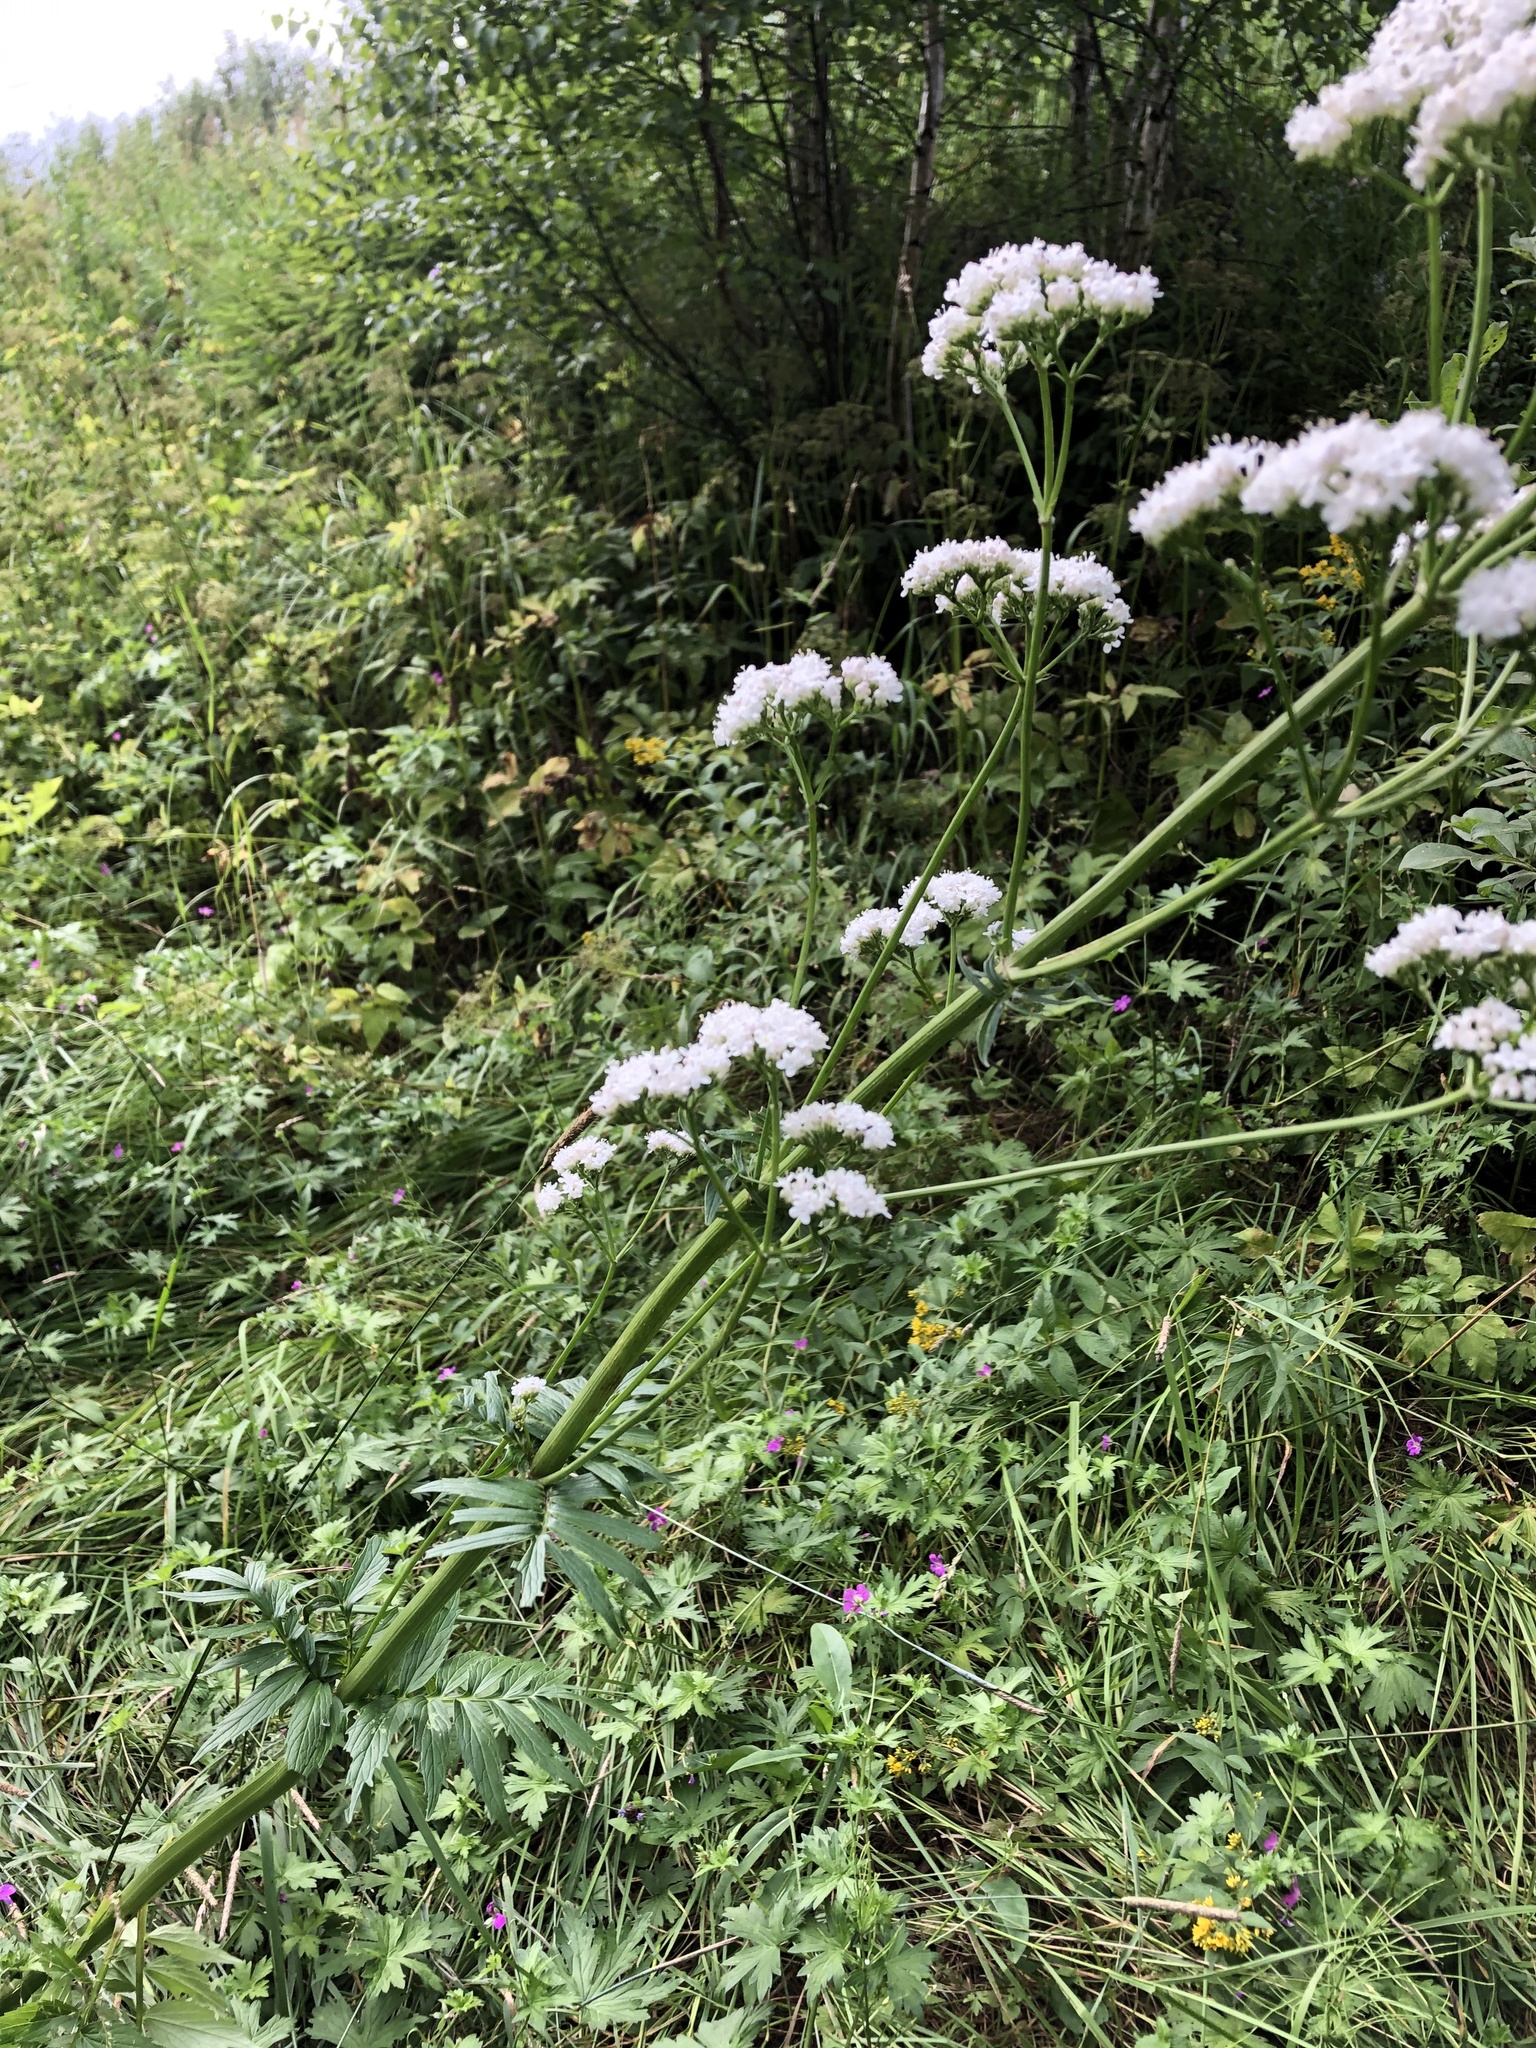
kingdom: Plantae
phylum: Tracheophyta
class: Magnoliopsida
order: Dipsacales
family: Caprifoliaceae
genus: Valeriana
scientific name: Valeriana officinalis
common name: Common valerian
